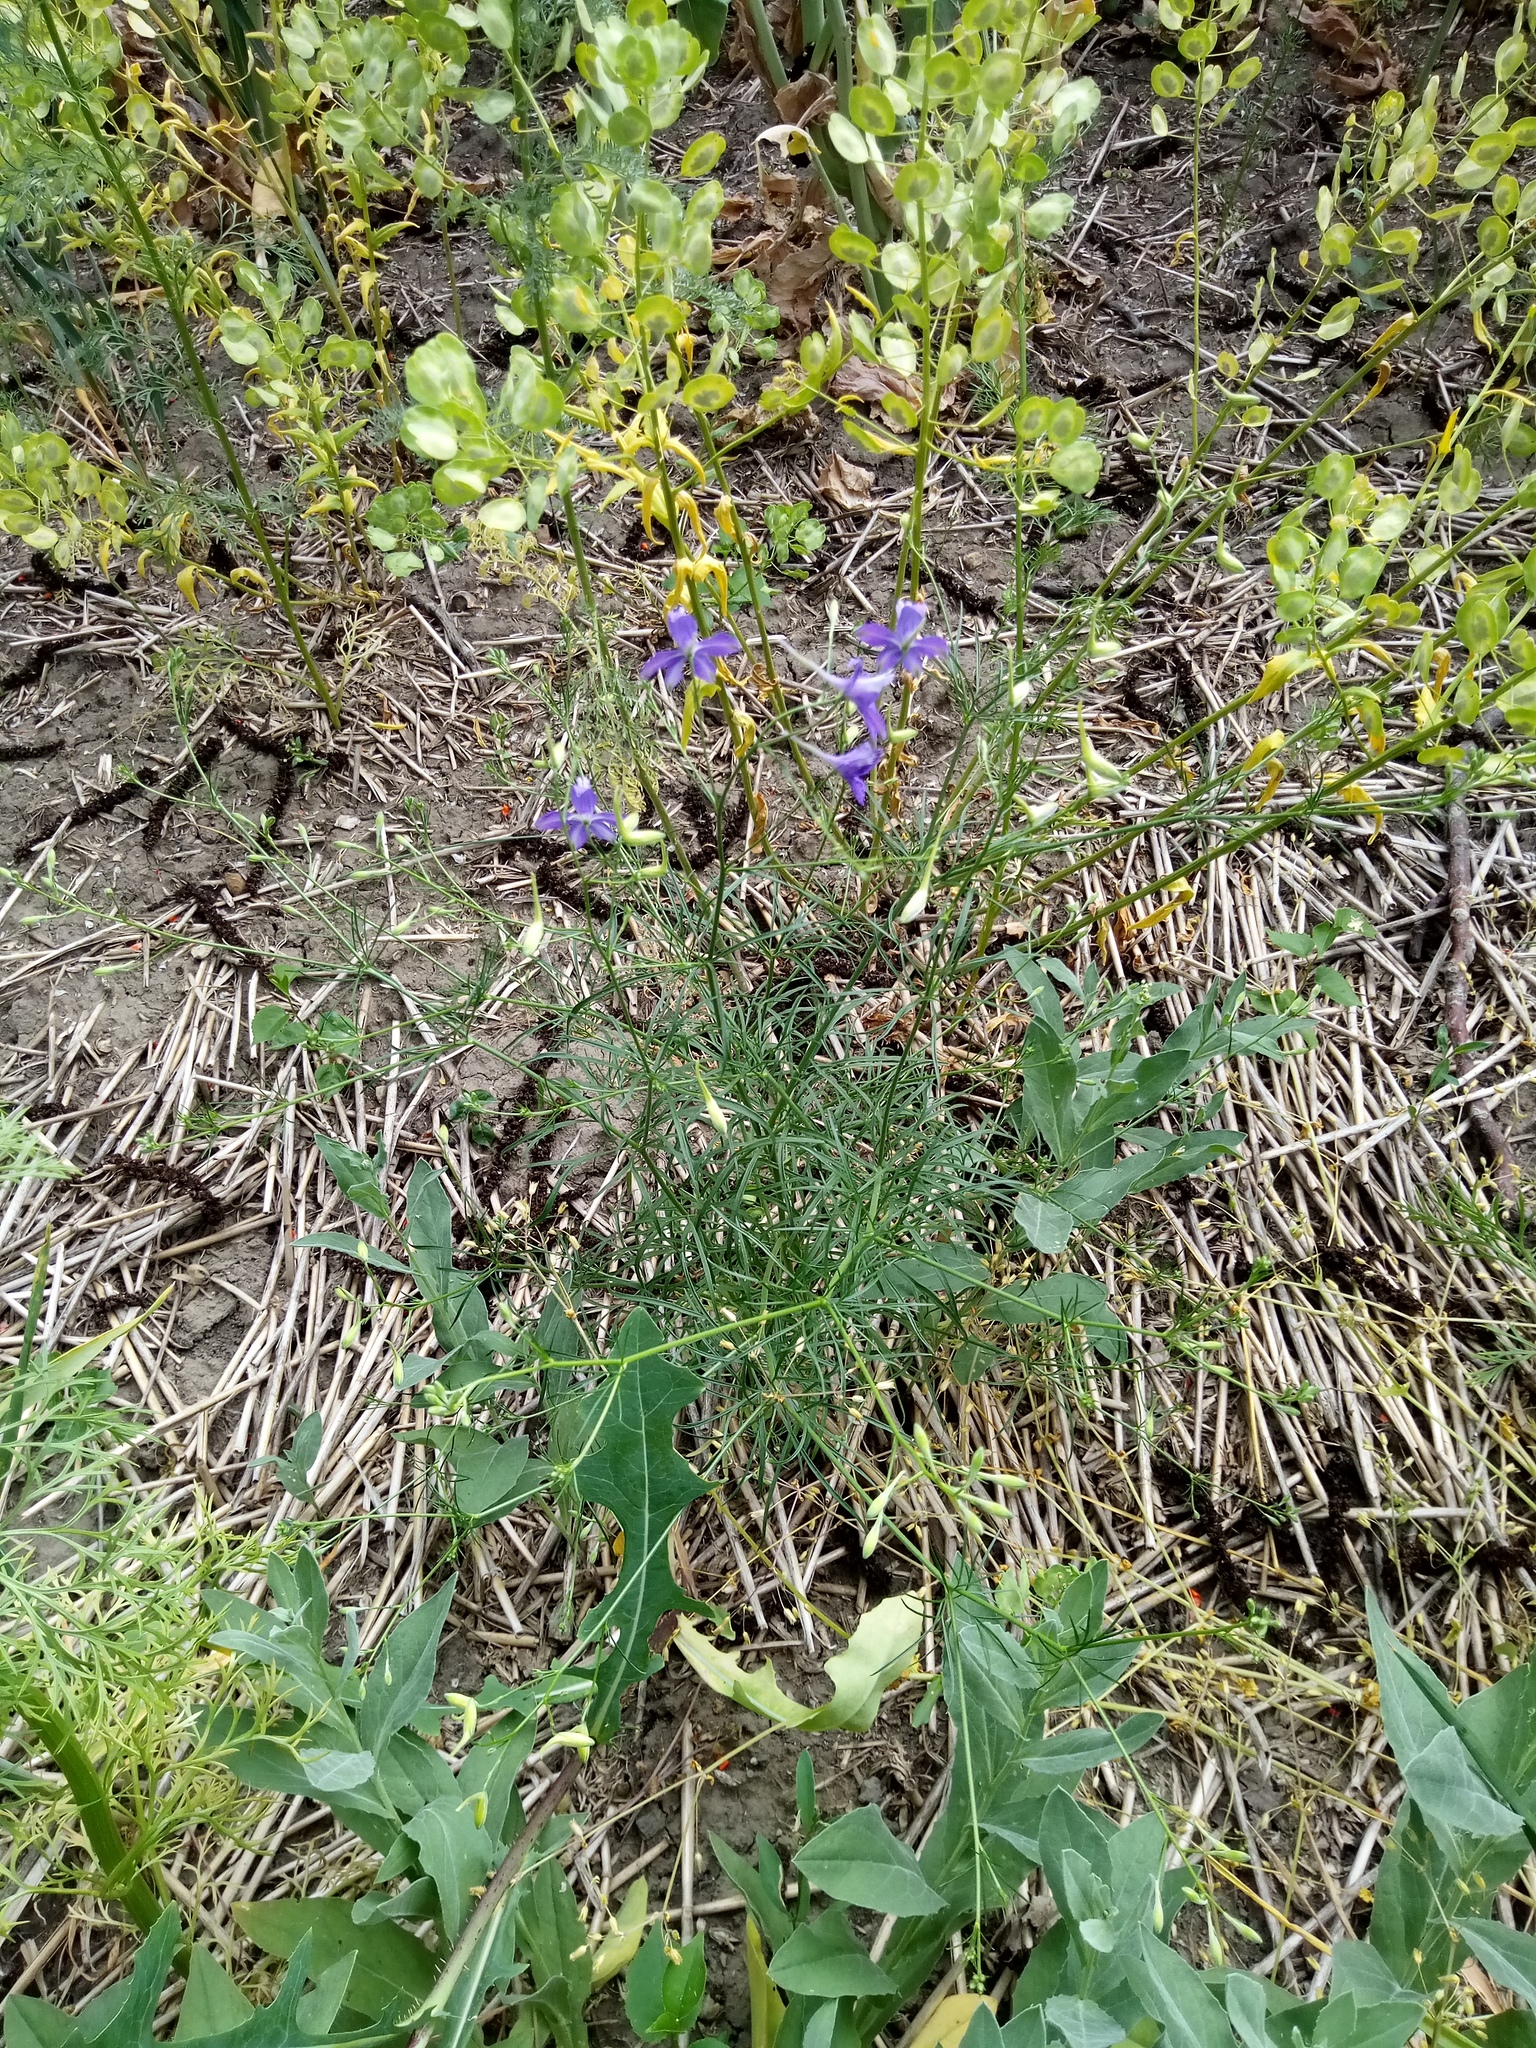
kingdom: Plantae
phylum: Tracheophyta
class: Magnoliopsida
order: Ranunculales
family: Ranunculaceae
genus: Delphinium
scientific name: Delphinium consolida
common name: Branching larkspur
